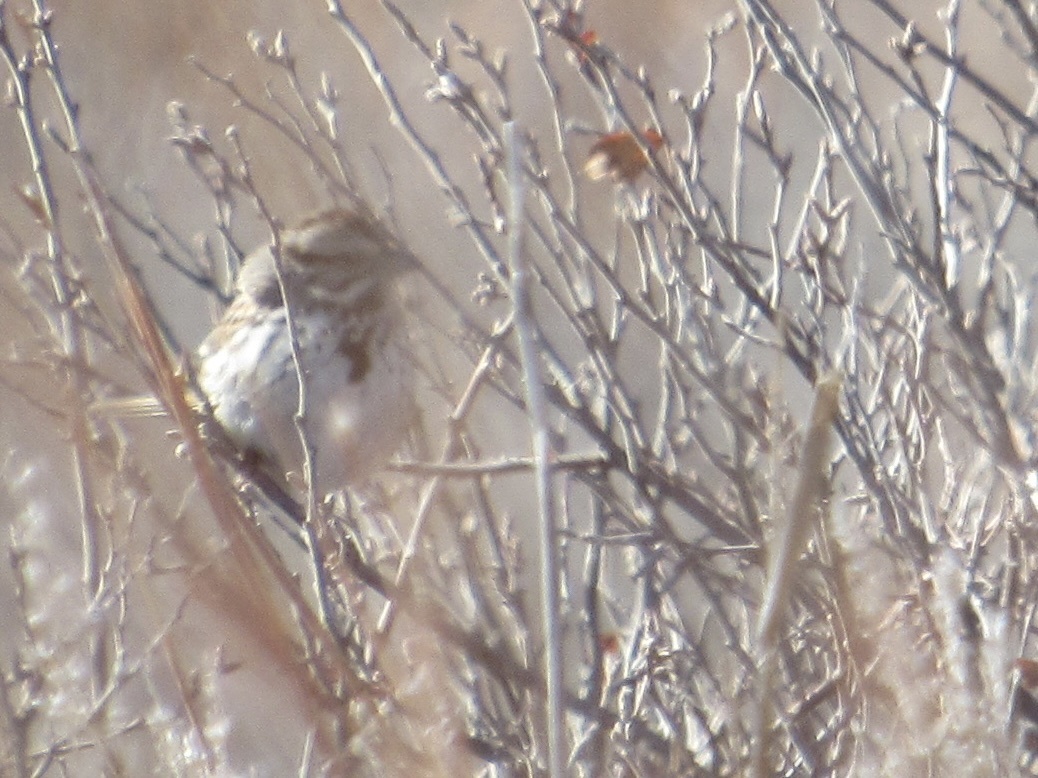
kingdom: Animalia
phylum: Chordata
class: Aves
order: Passeriformes
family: Passerellidae
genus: Melospiza
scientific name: Melospiza melodia
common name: Song sparrow
